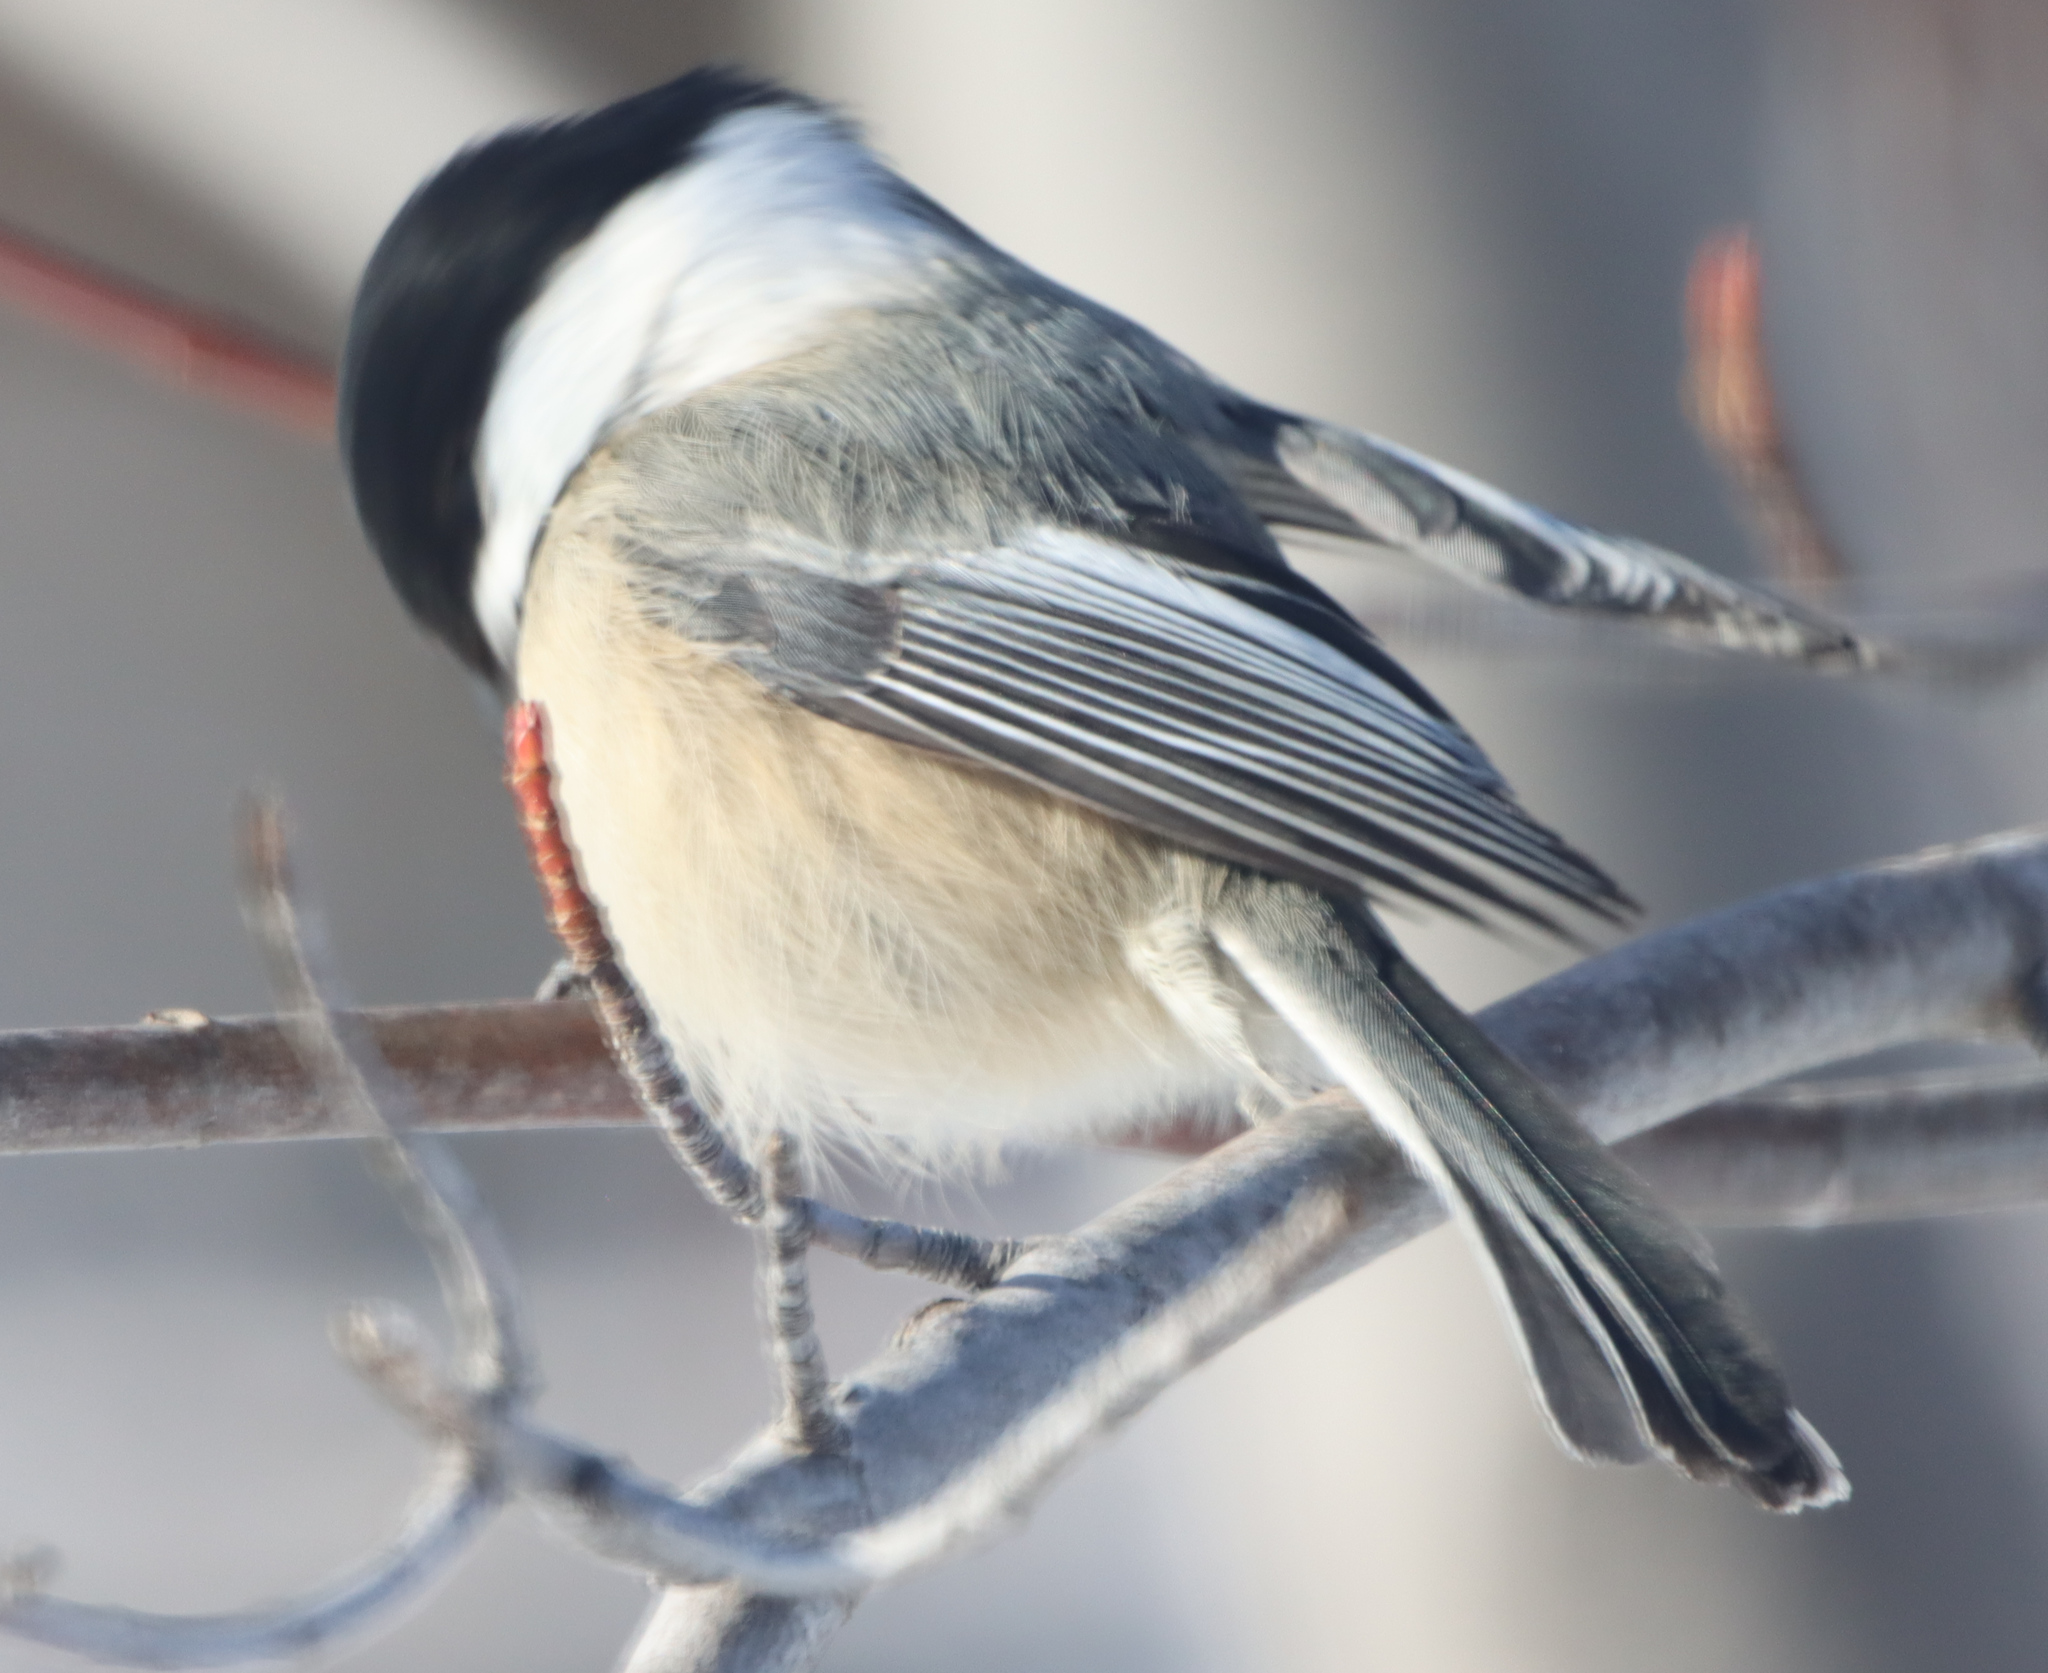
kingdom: Animalia
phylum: Chordata
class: Aves
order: Passeriformes
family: Paridae
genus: Poecile
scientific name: Poecile atricapillus
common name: Black-capped chickadee
